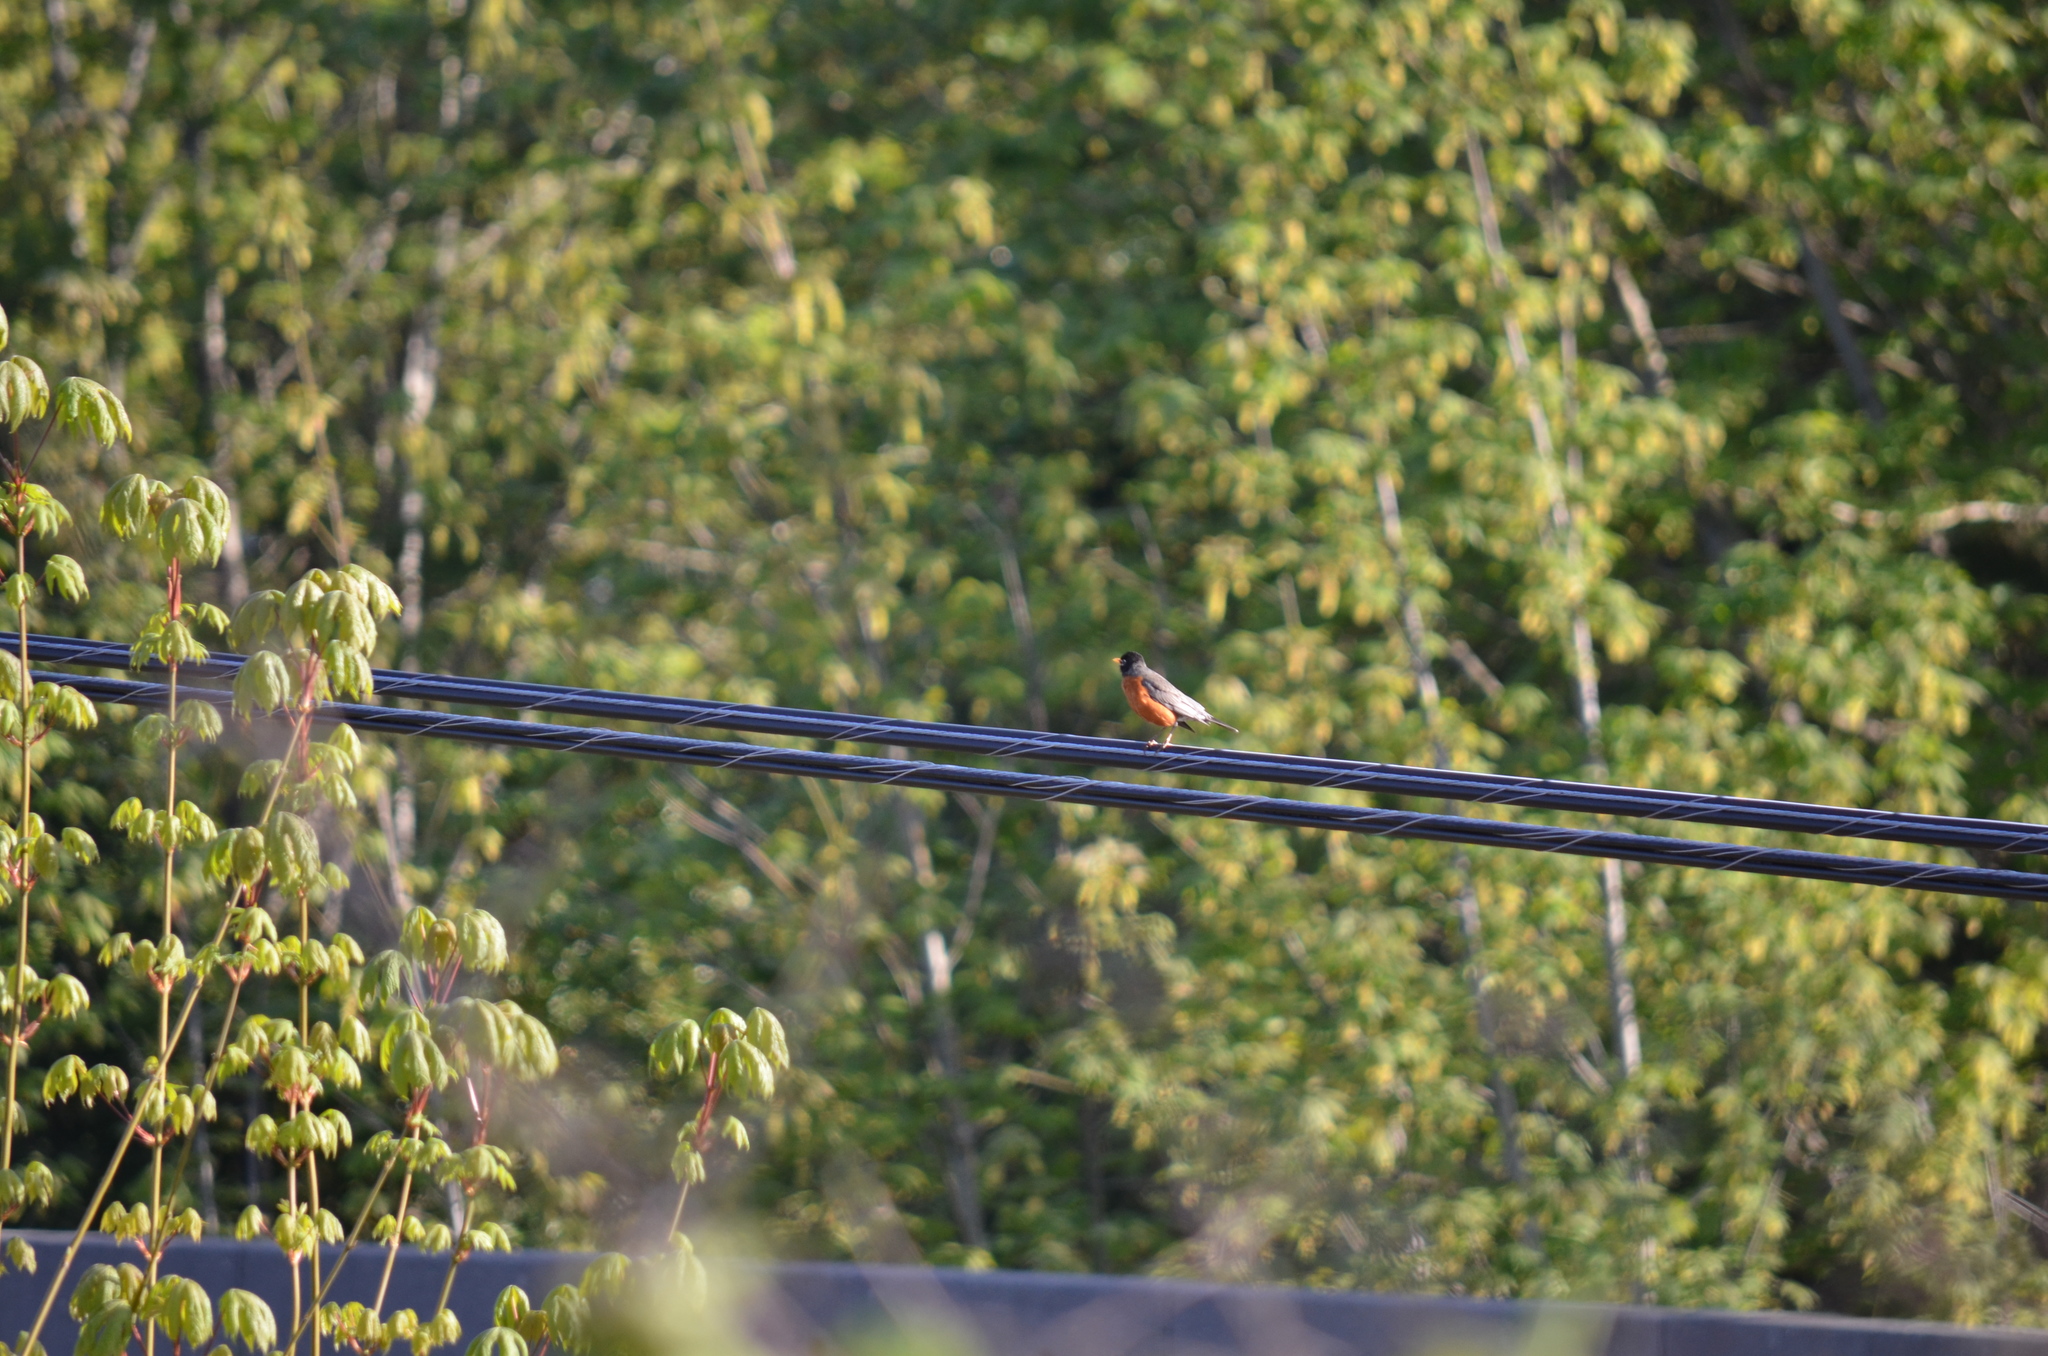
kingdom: Animalia
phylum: Chordata
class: Aves
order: Passeriformes
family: Turdidae
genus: Turdus
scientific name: Turdus migratorius
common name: American robin
